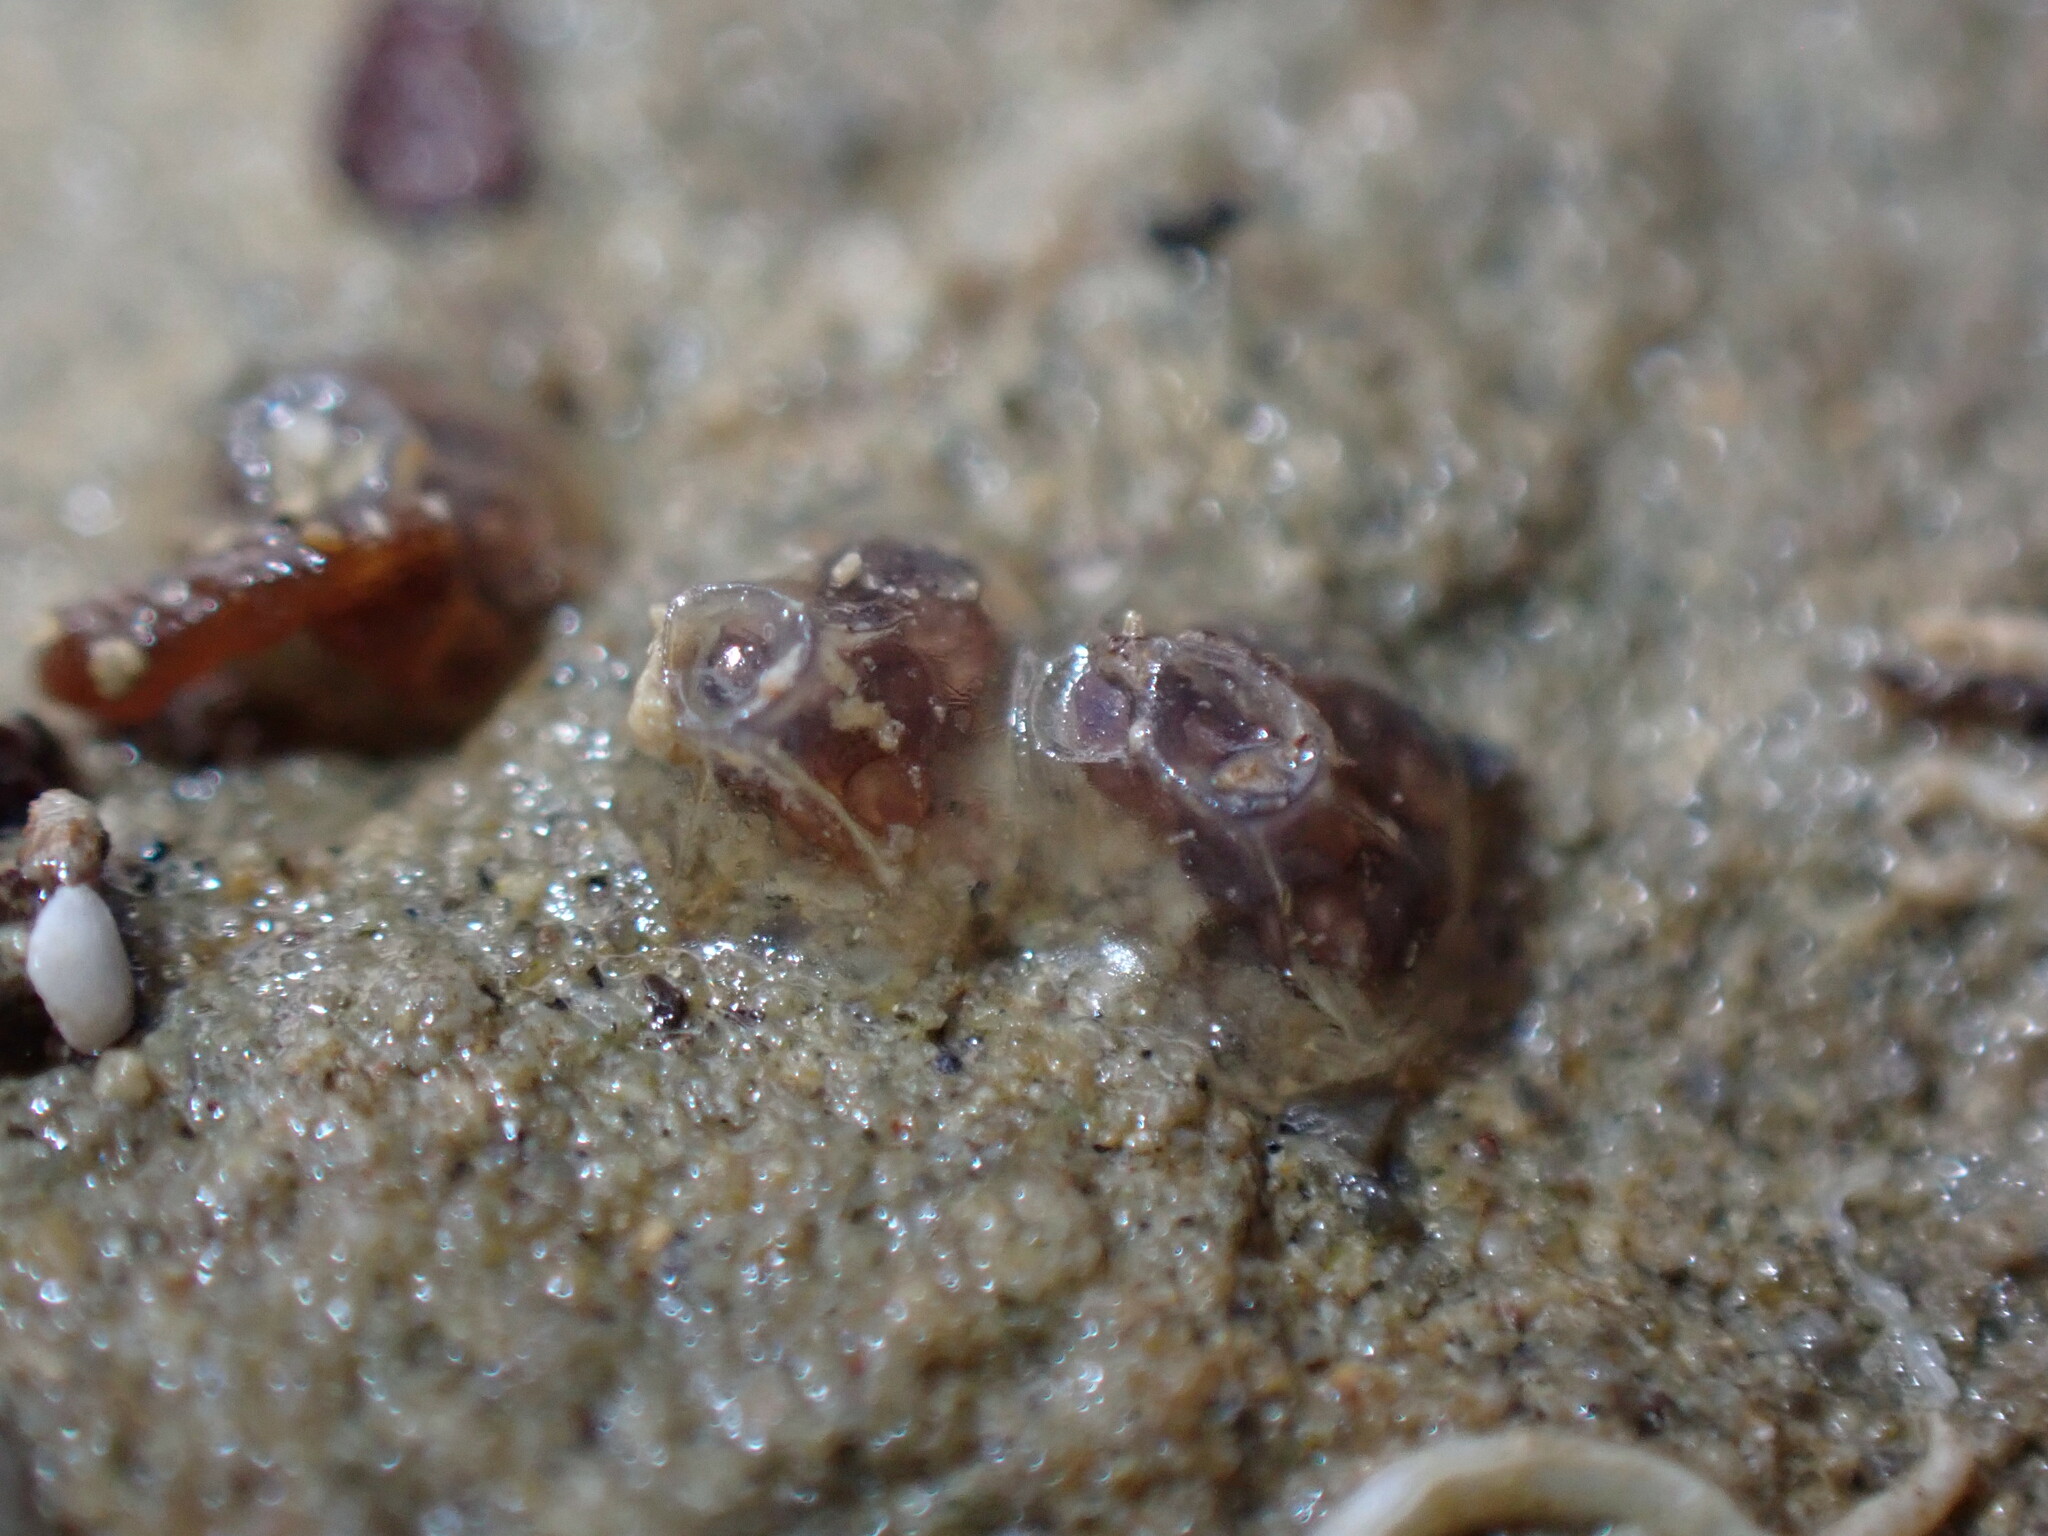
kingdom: Animalia
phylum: Mollusca
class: Gastropoda
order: Neogastropoda
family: Cominellidae
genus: Cominella
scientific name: Cominella glandiformis
